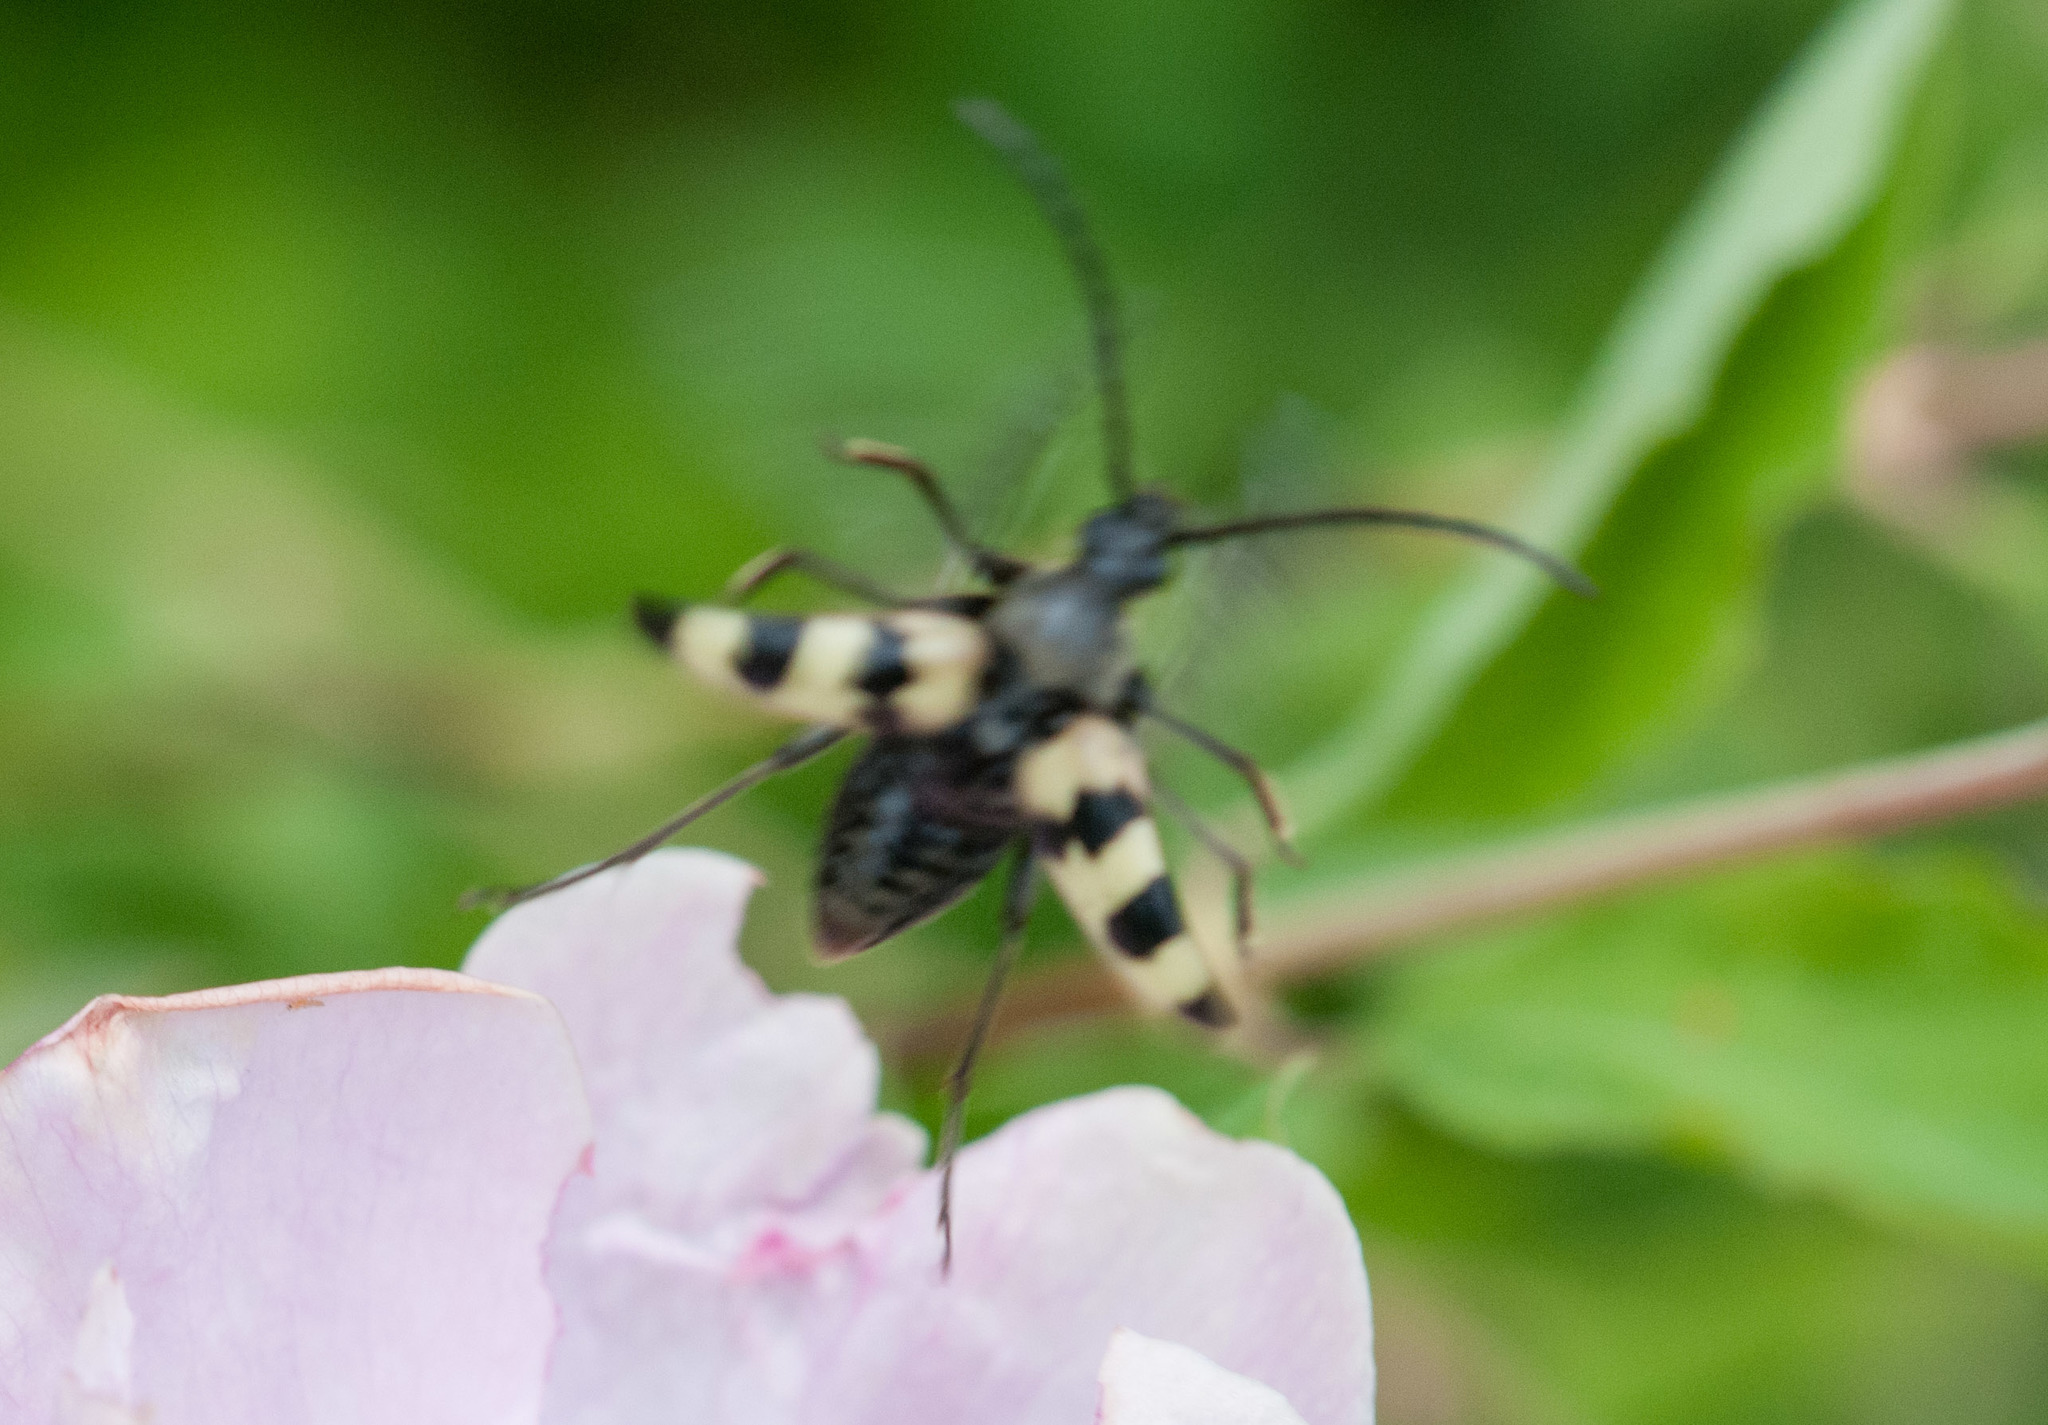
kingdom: Animalia
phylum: Arthropoda
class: Insecta
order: Coleoptera
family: Cleridae
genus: Trichodes
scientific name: Trichodes ornatus
